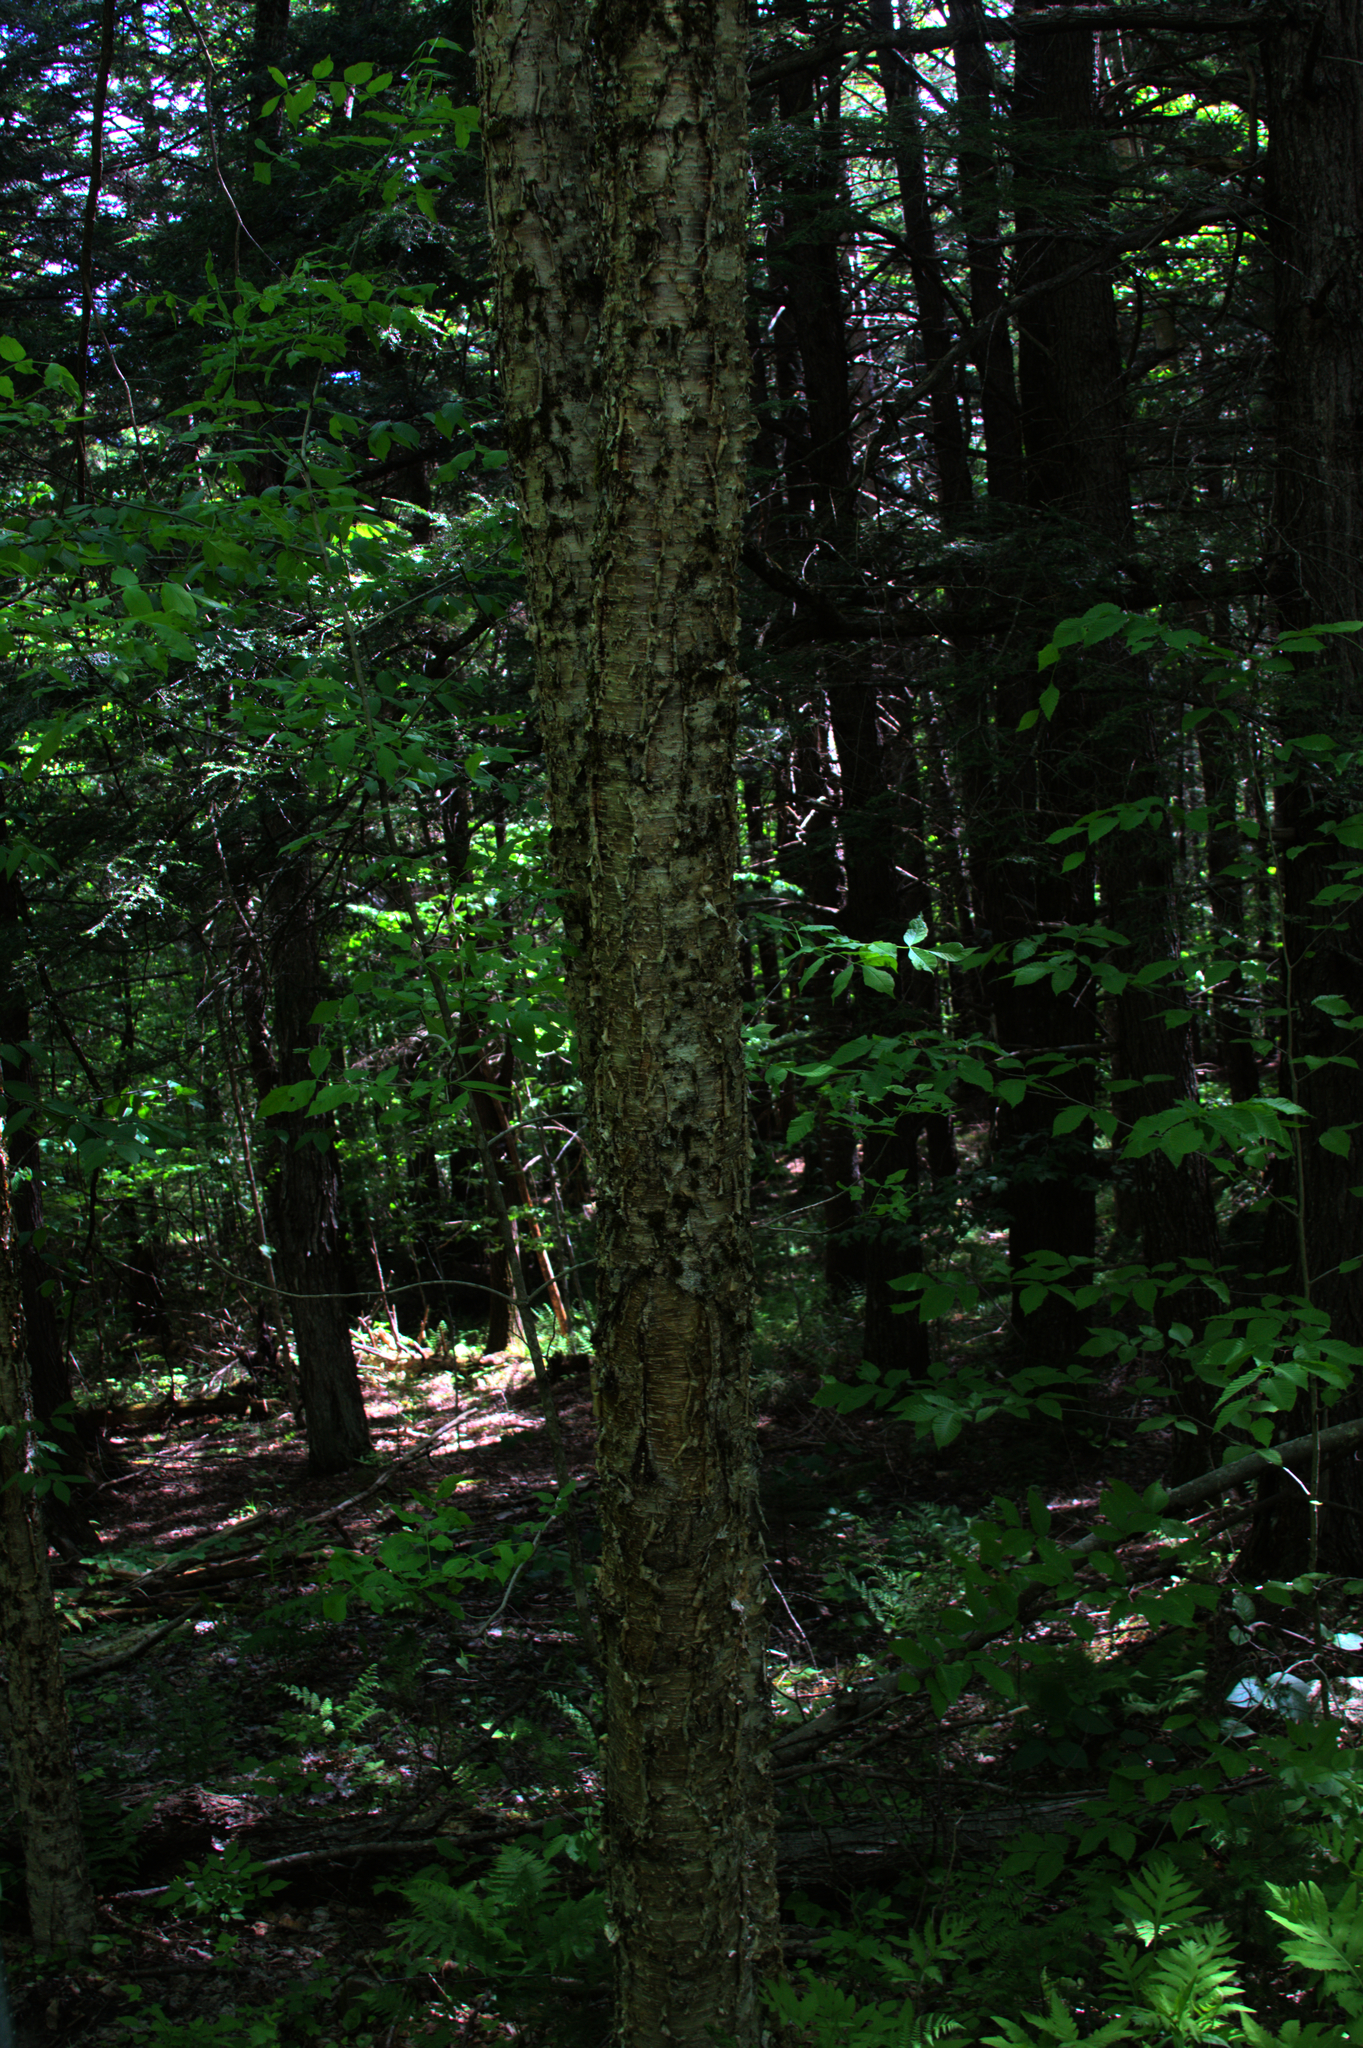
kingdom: Plantae
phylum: Tracheophyta
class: Magnoliopsida
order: Fagales
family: Betulaceae
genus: Betula
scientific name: Betula alleghaniensis
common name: Yellow birch
